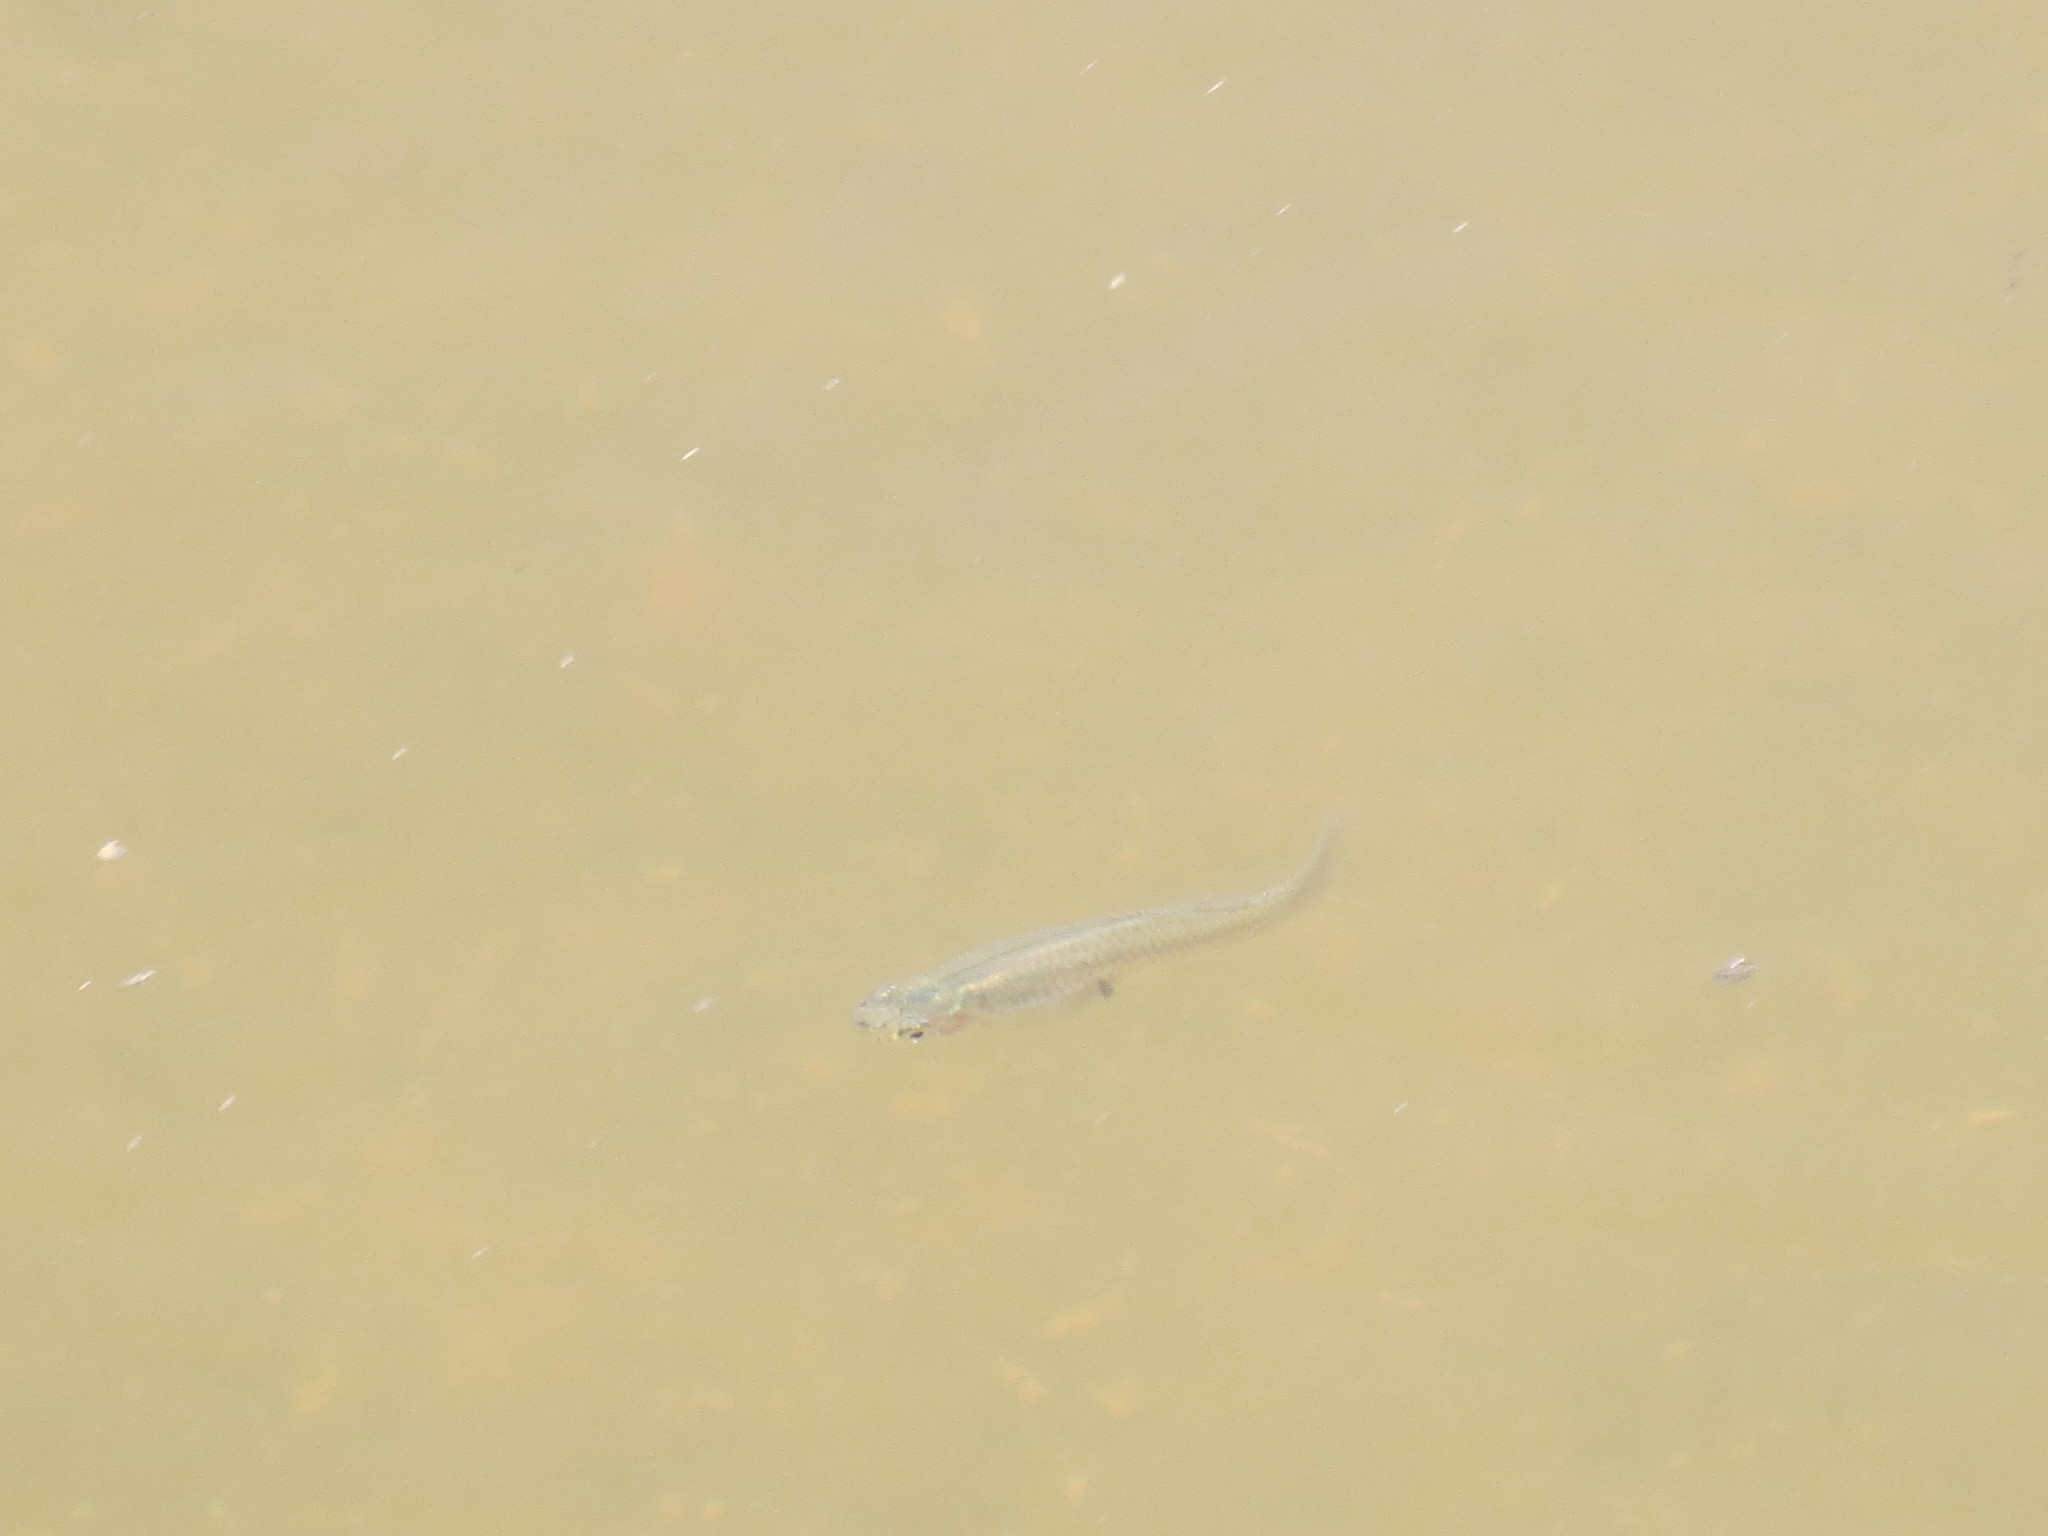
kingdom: Animalia
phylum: Chordata
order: Cyprinodontiformes
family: Poeciliidae
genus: Gambusia
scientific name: Gambusia holbrooki
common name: Eastern mosquitofish
